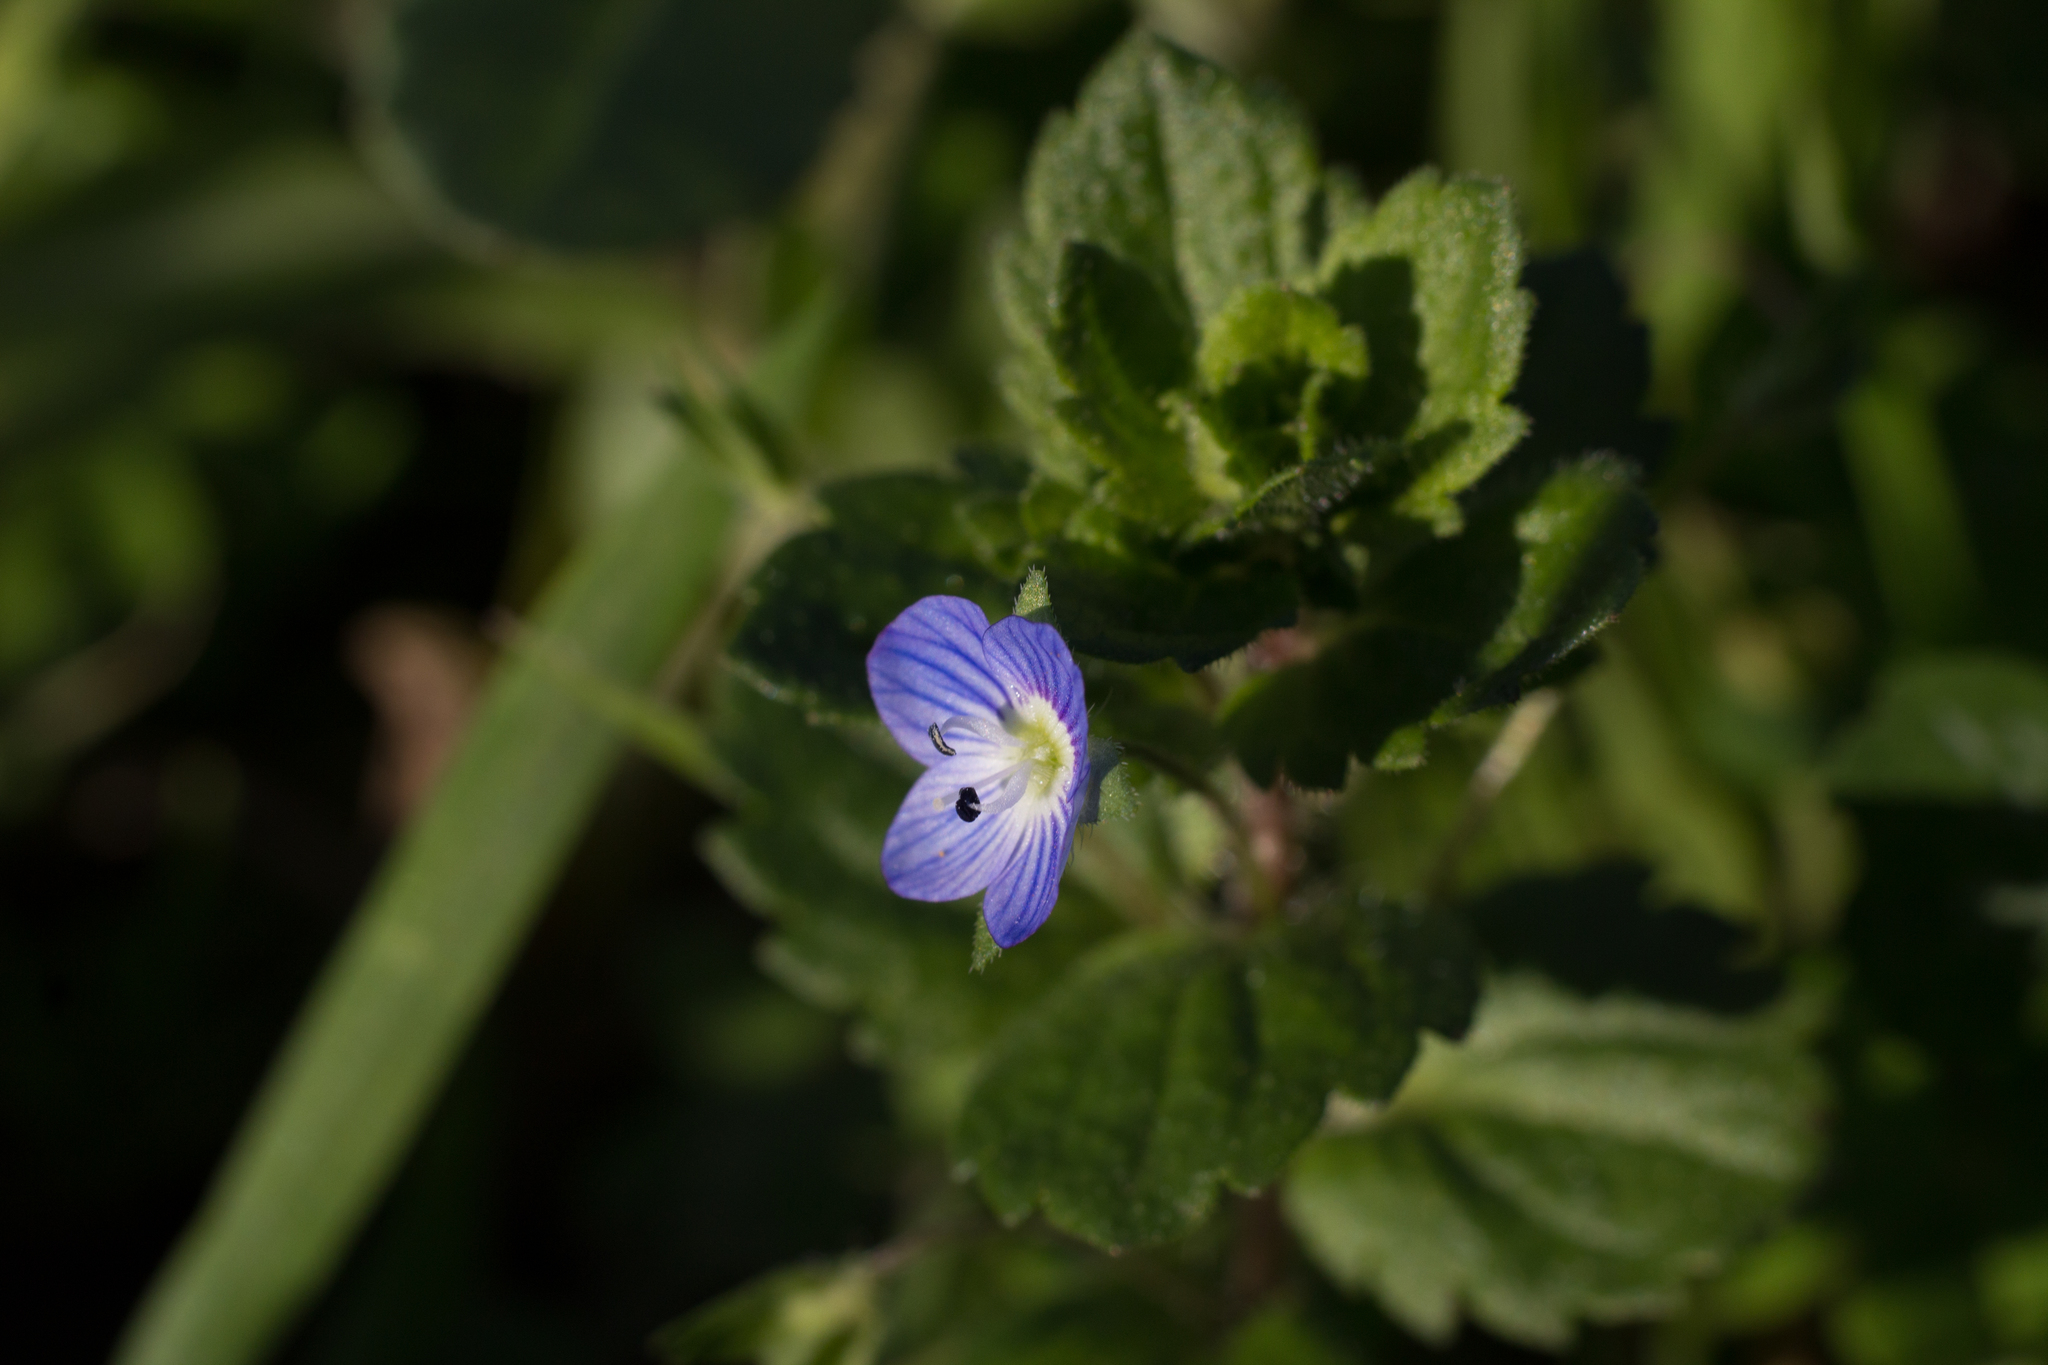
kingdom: Plantae
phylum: Tracheophyta
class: Magnoliopsida
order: Lamiales
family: Plantaginaceae
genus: Veronica
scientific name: Veronica persica
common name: Common field-speedwell
